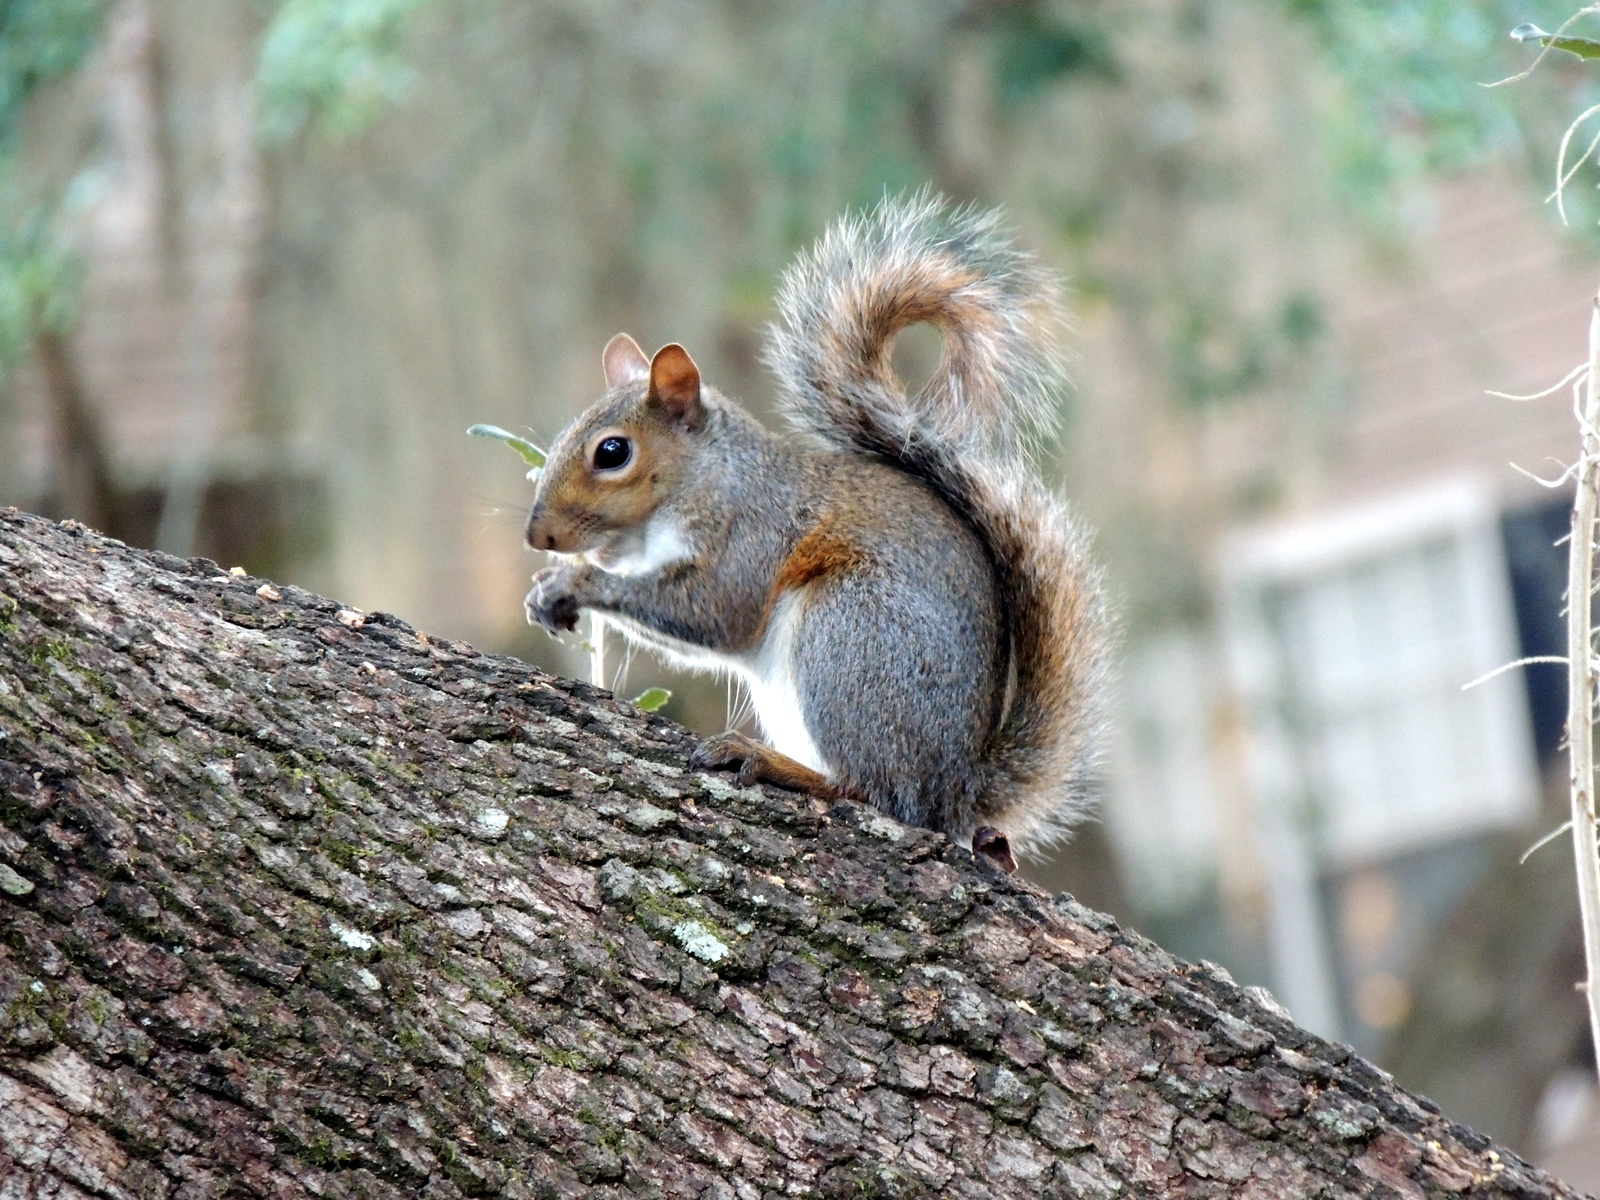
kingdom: Animalia
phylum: Chordata
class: Mammalia
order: Rodentia
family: Sciuridae
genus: Sciurus
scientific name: Sciurus carolinensis
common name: Eastern gray squirrel
